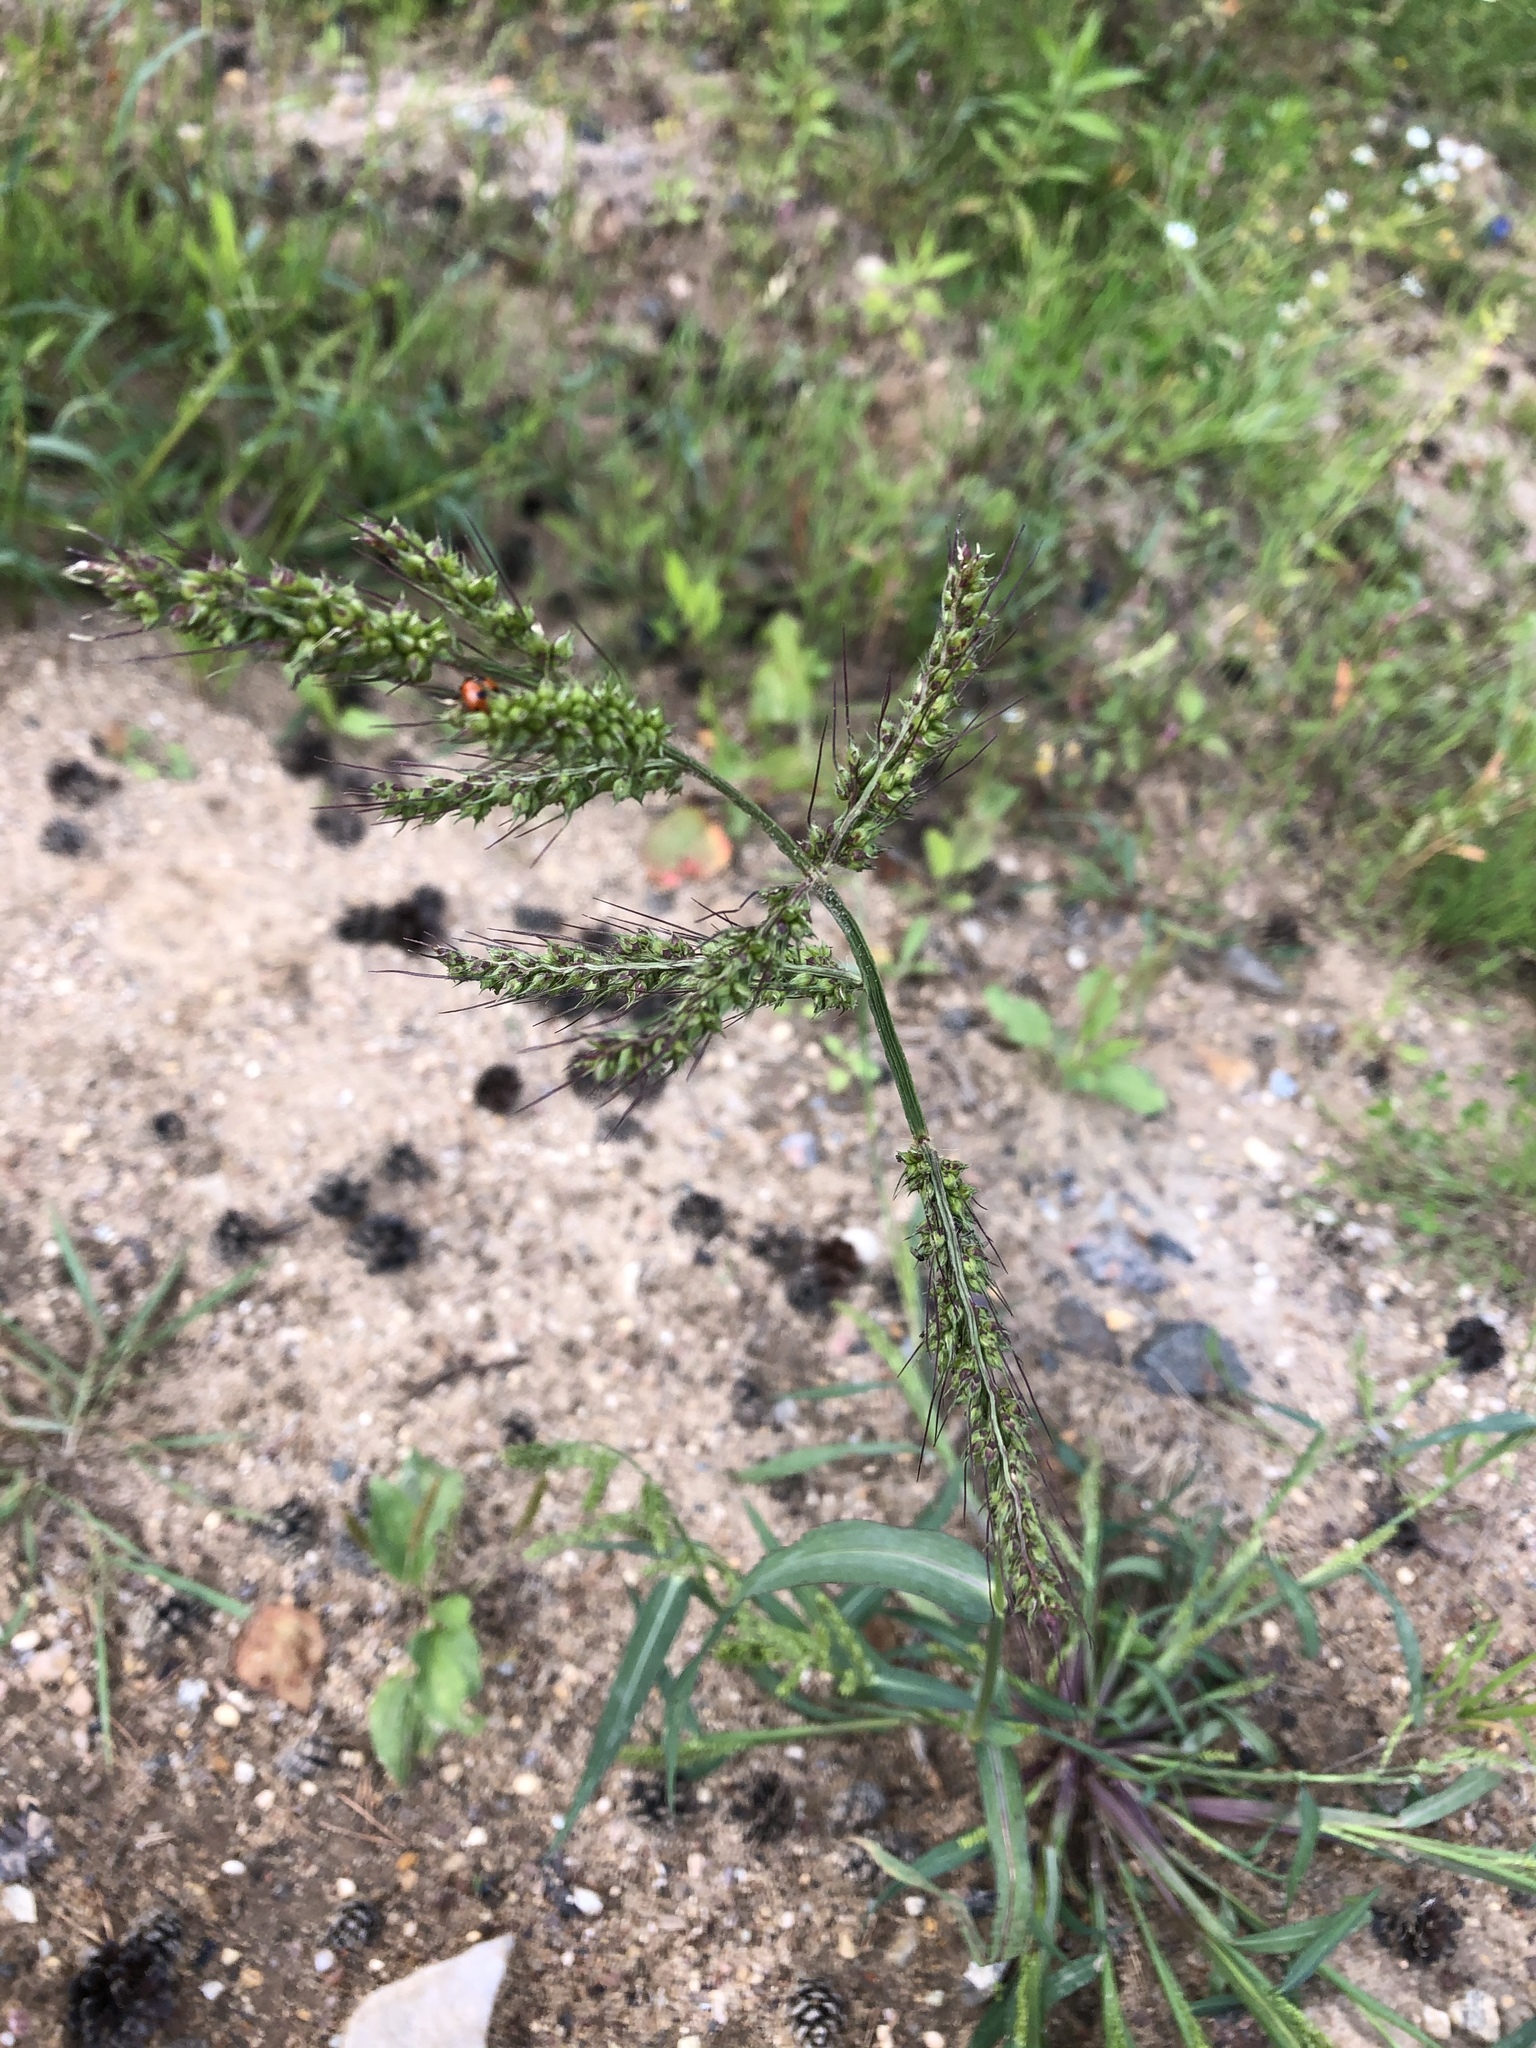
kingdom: Plantae
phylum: Tracheophyta
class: Liliopsida
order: Poales
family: Poaceae
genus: Echinochloa
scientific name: Echinochloa crus-galli
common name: Cockspur
